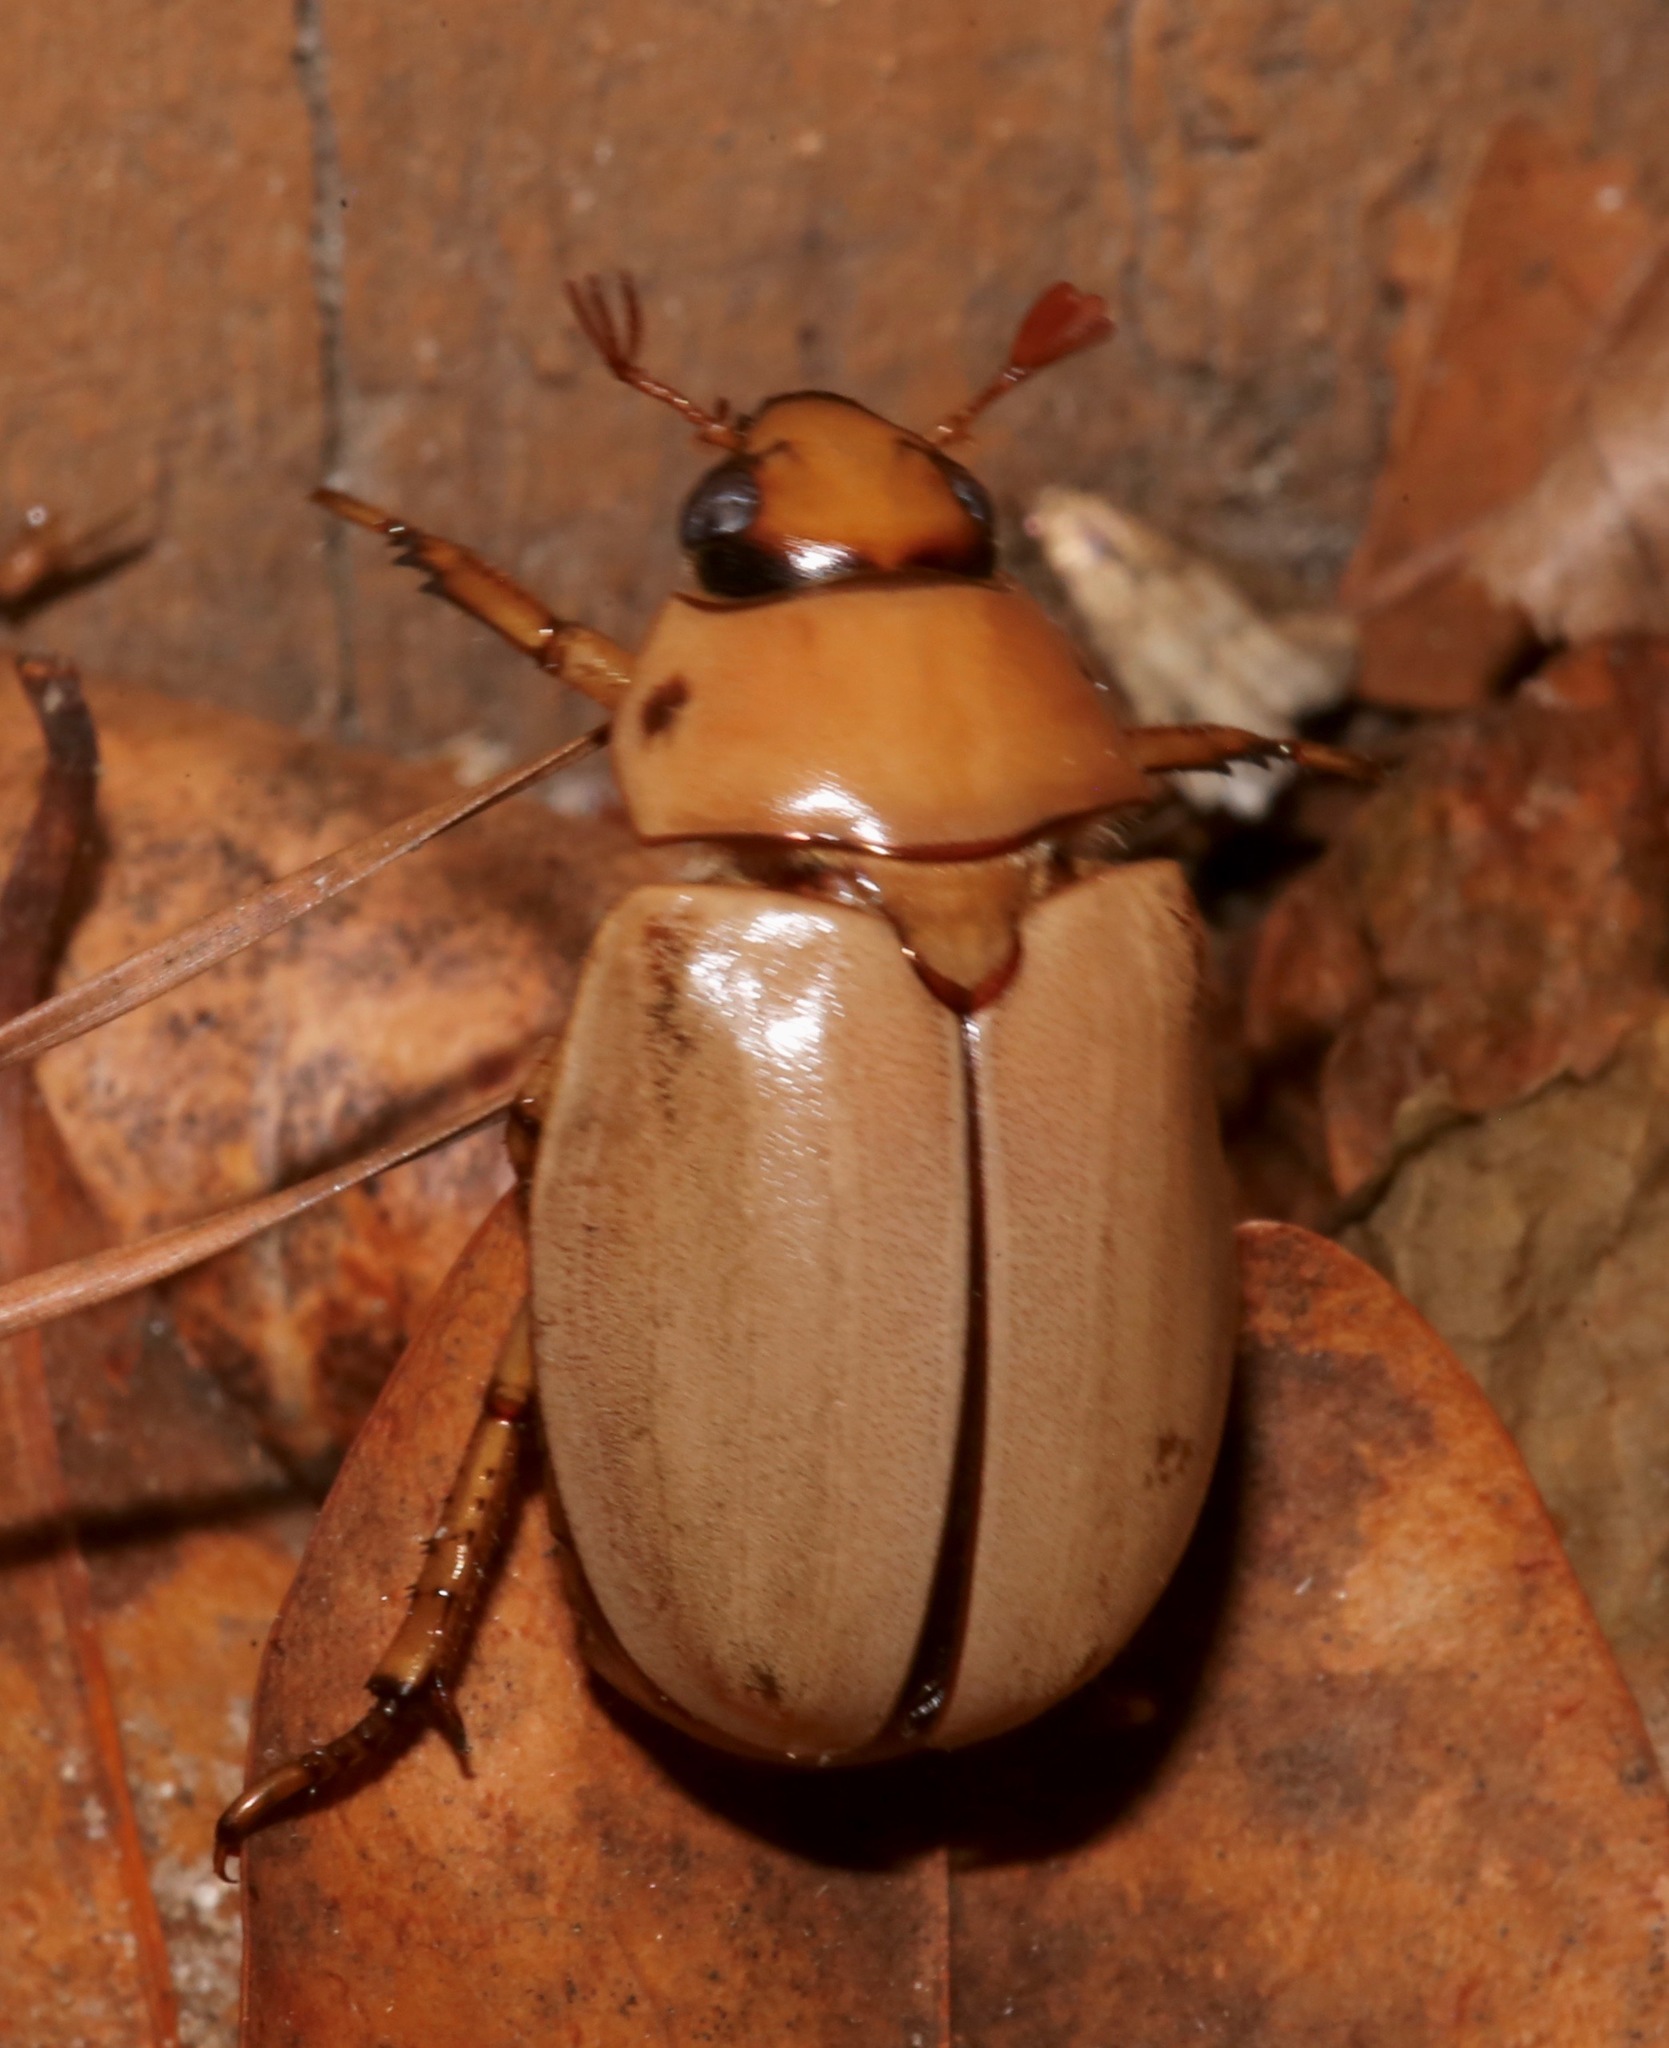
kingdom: Animalia
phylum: Arthropoda
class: Insecta
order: Coleoptera
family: Scarabaeidae
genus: Pelidnota
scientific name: Pelidnota punctata
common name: Grapevine beetle
